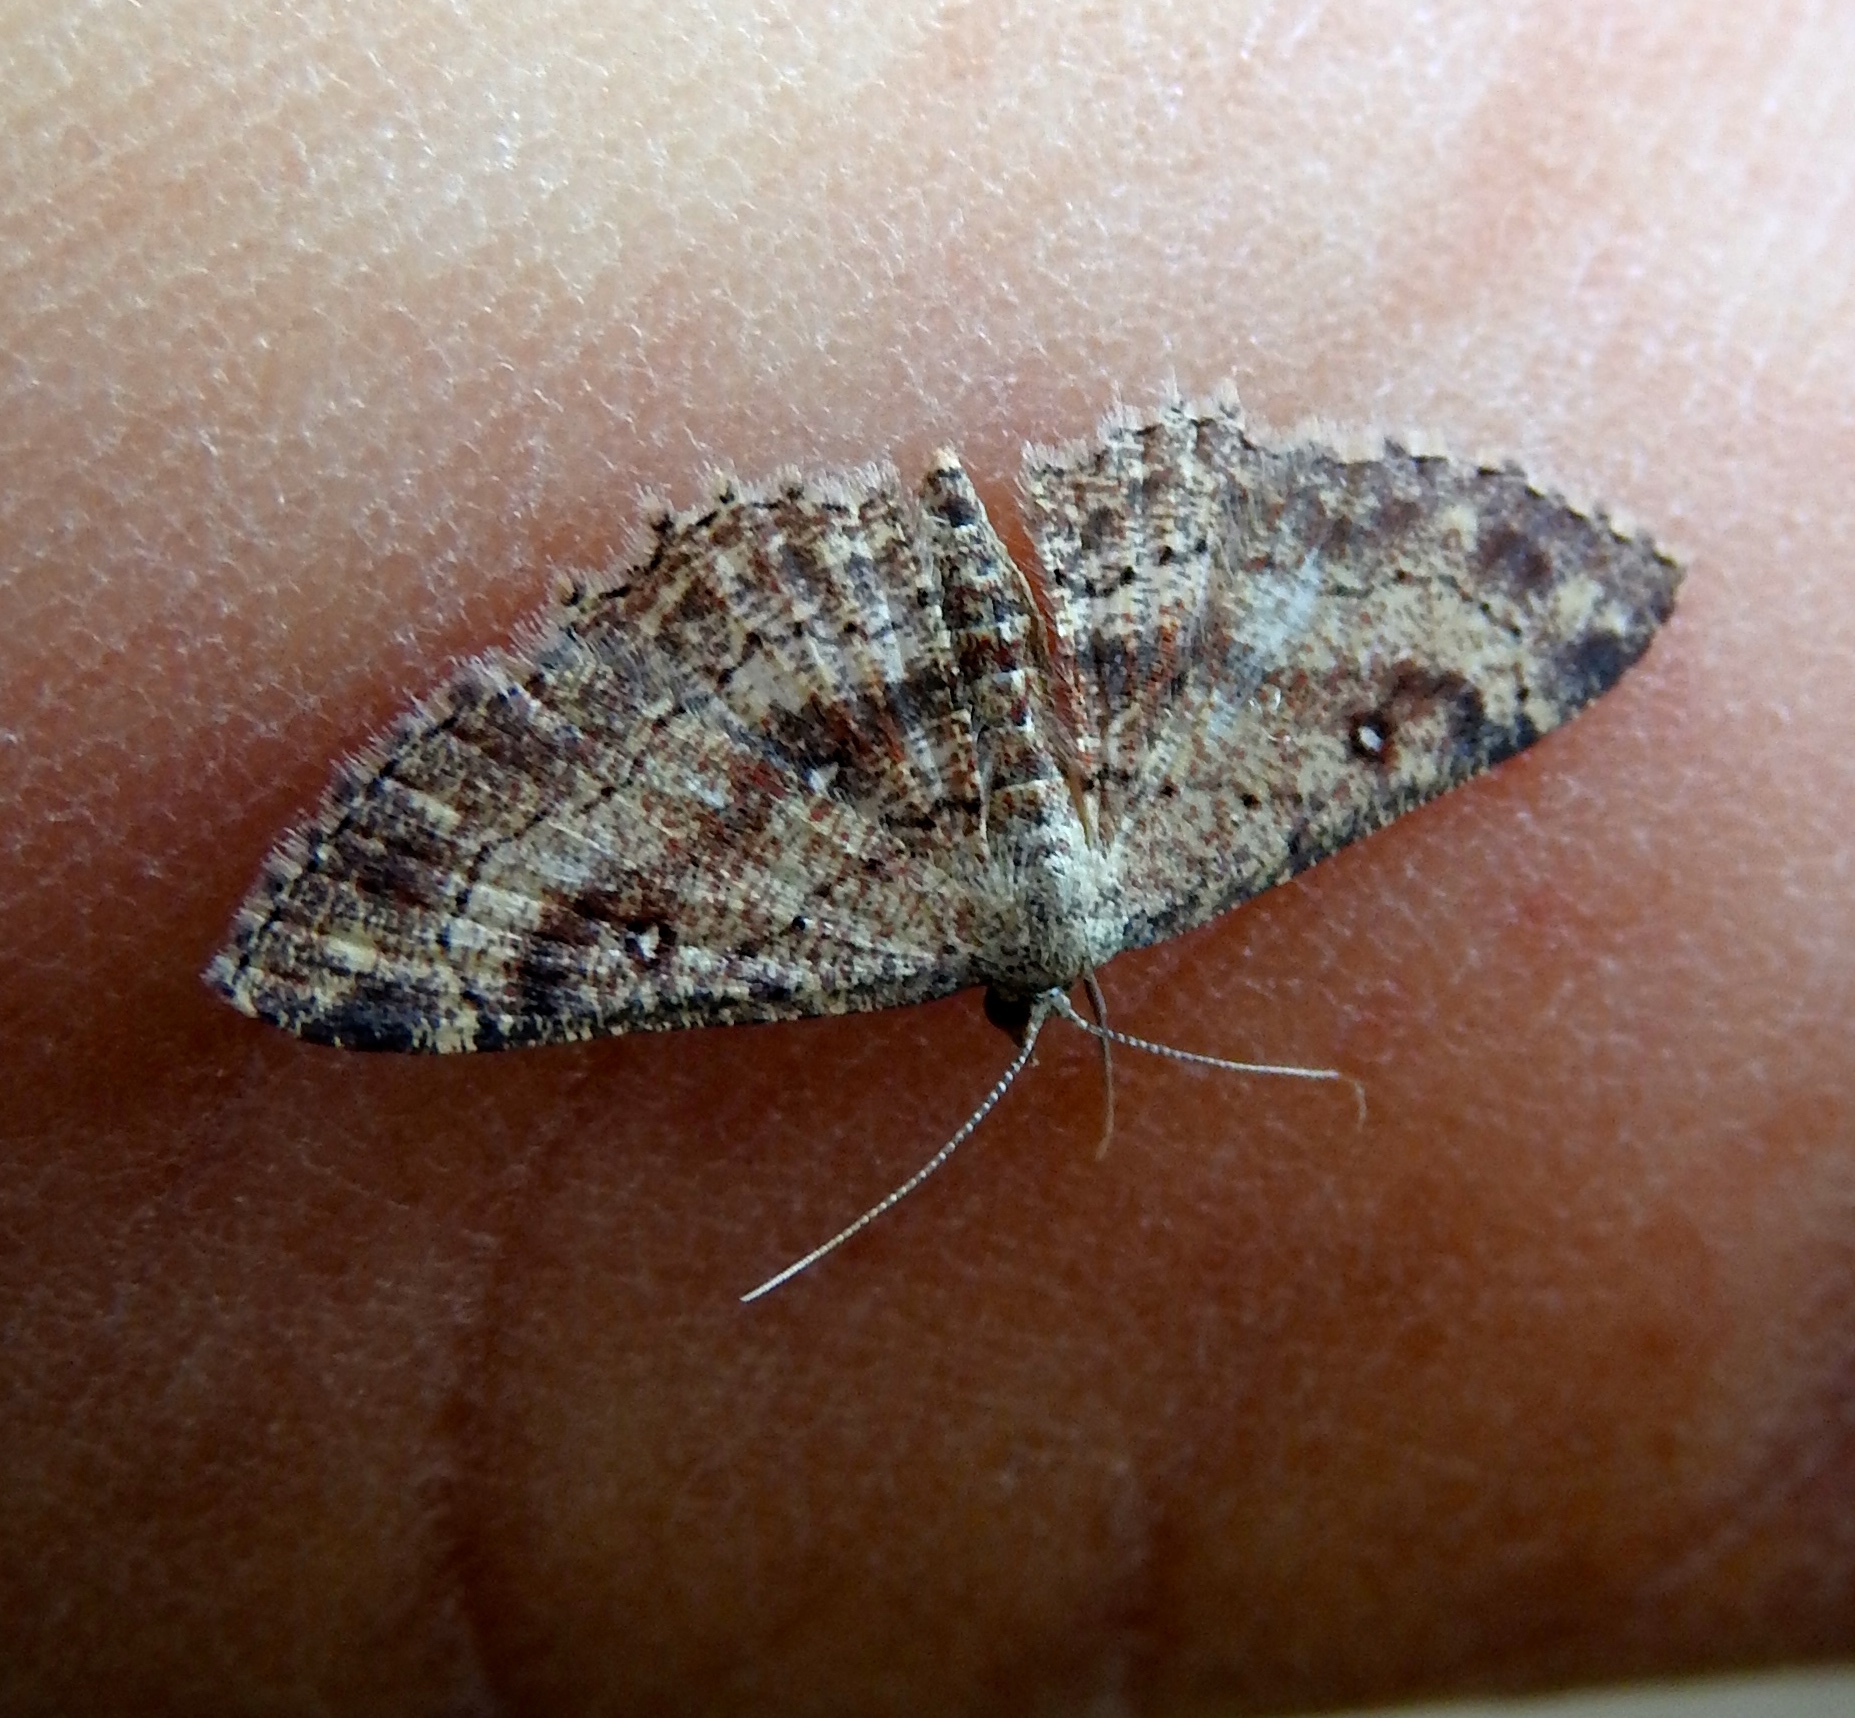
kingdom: Animalia
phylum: Arthropoda
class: Insecta
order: Lepidoptera
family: Geometridae
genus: Cyclophora
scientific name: Cyclophora nanaria
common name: Cankerworm
